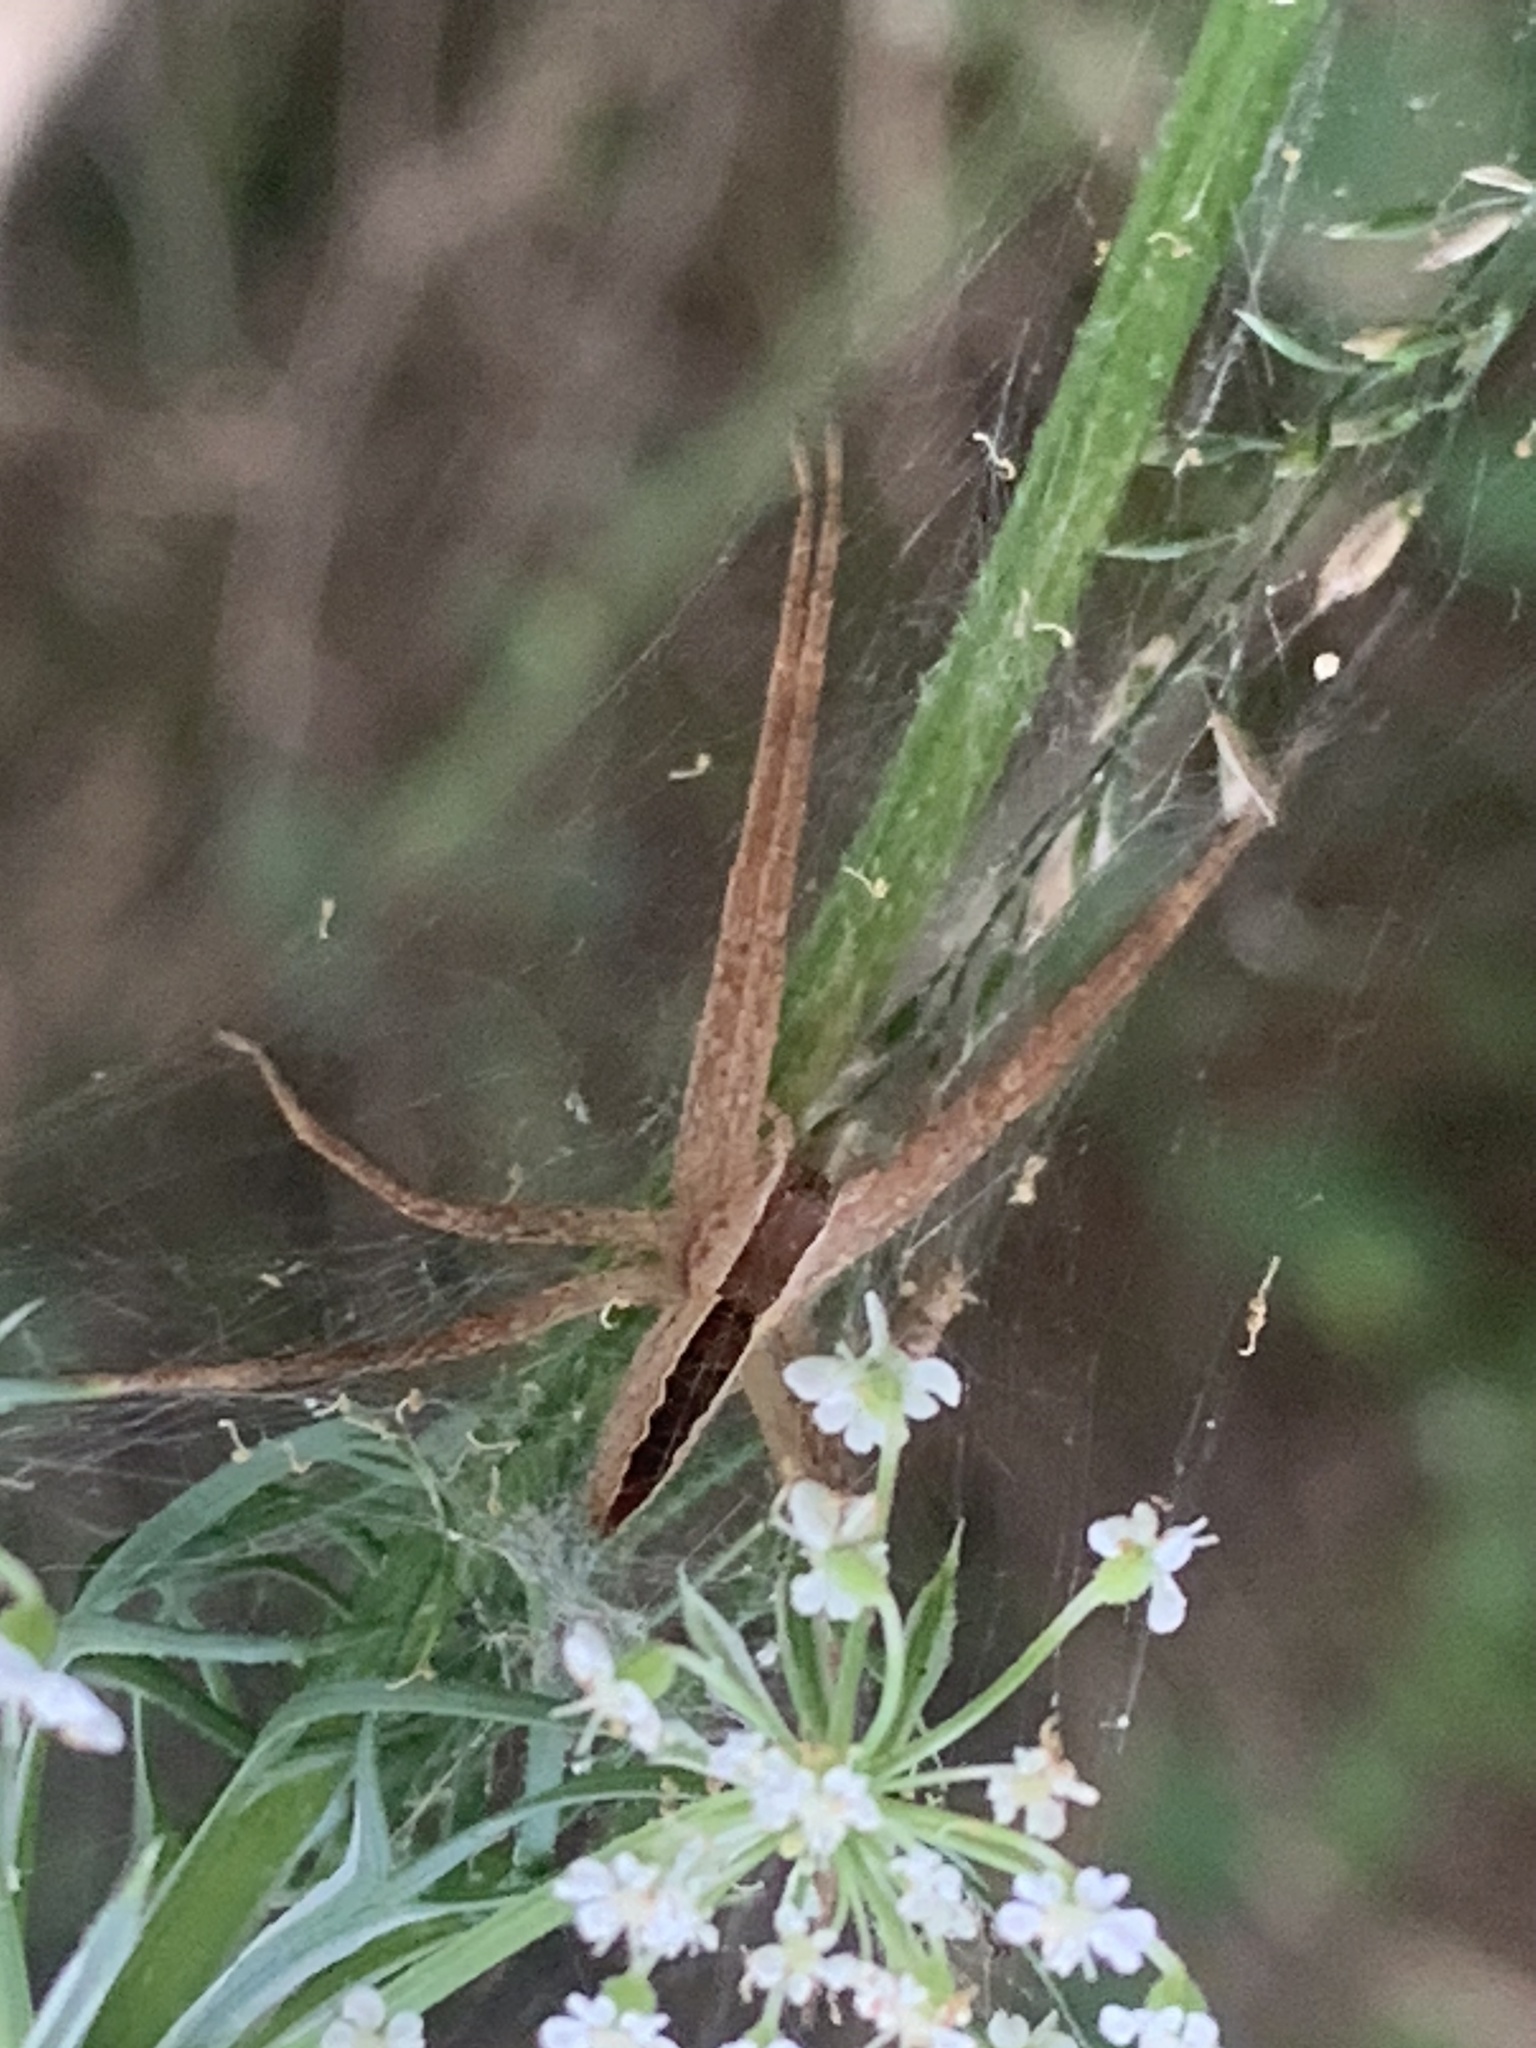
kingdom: Animalia
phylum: Arthropoda
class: Arachnida
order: Araneae
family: Pisauridae
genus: Pisaurina
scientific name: Pisaurina mira
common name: American nursery web spider
